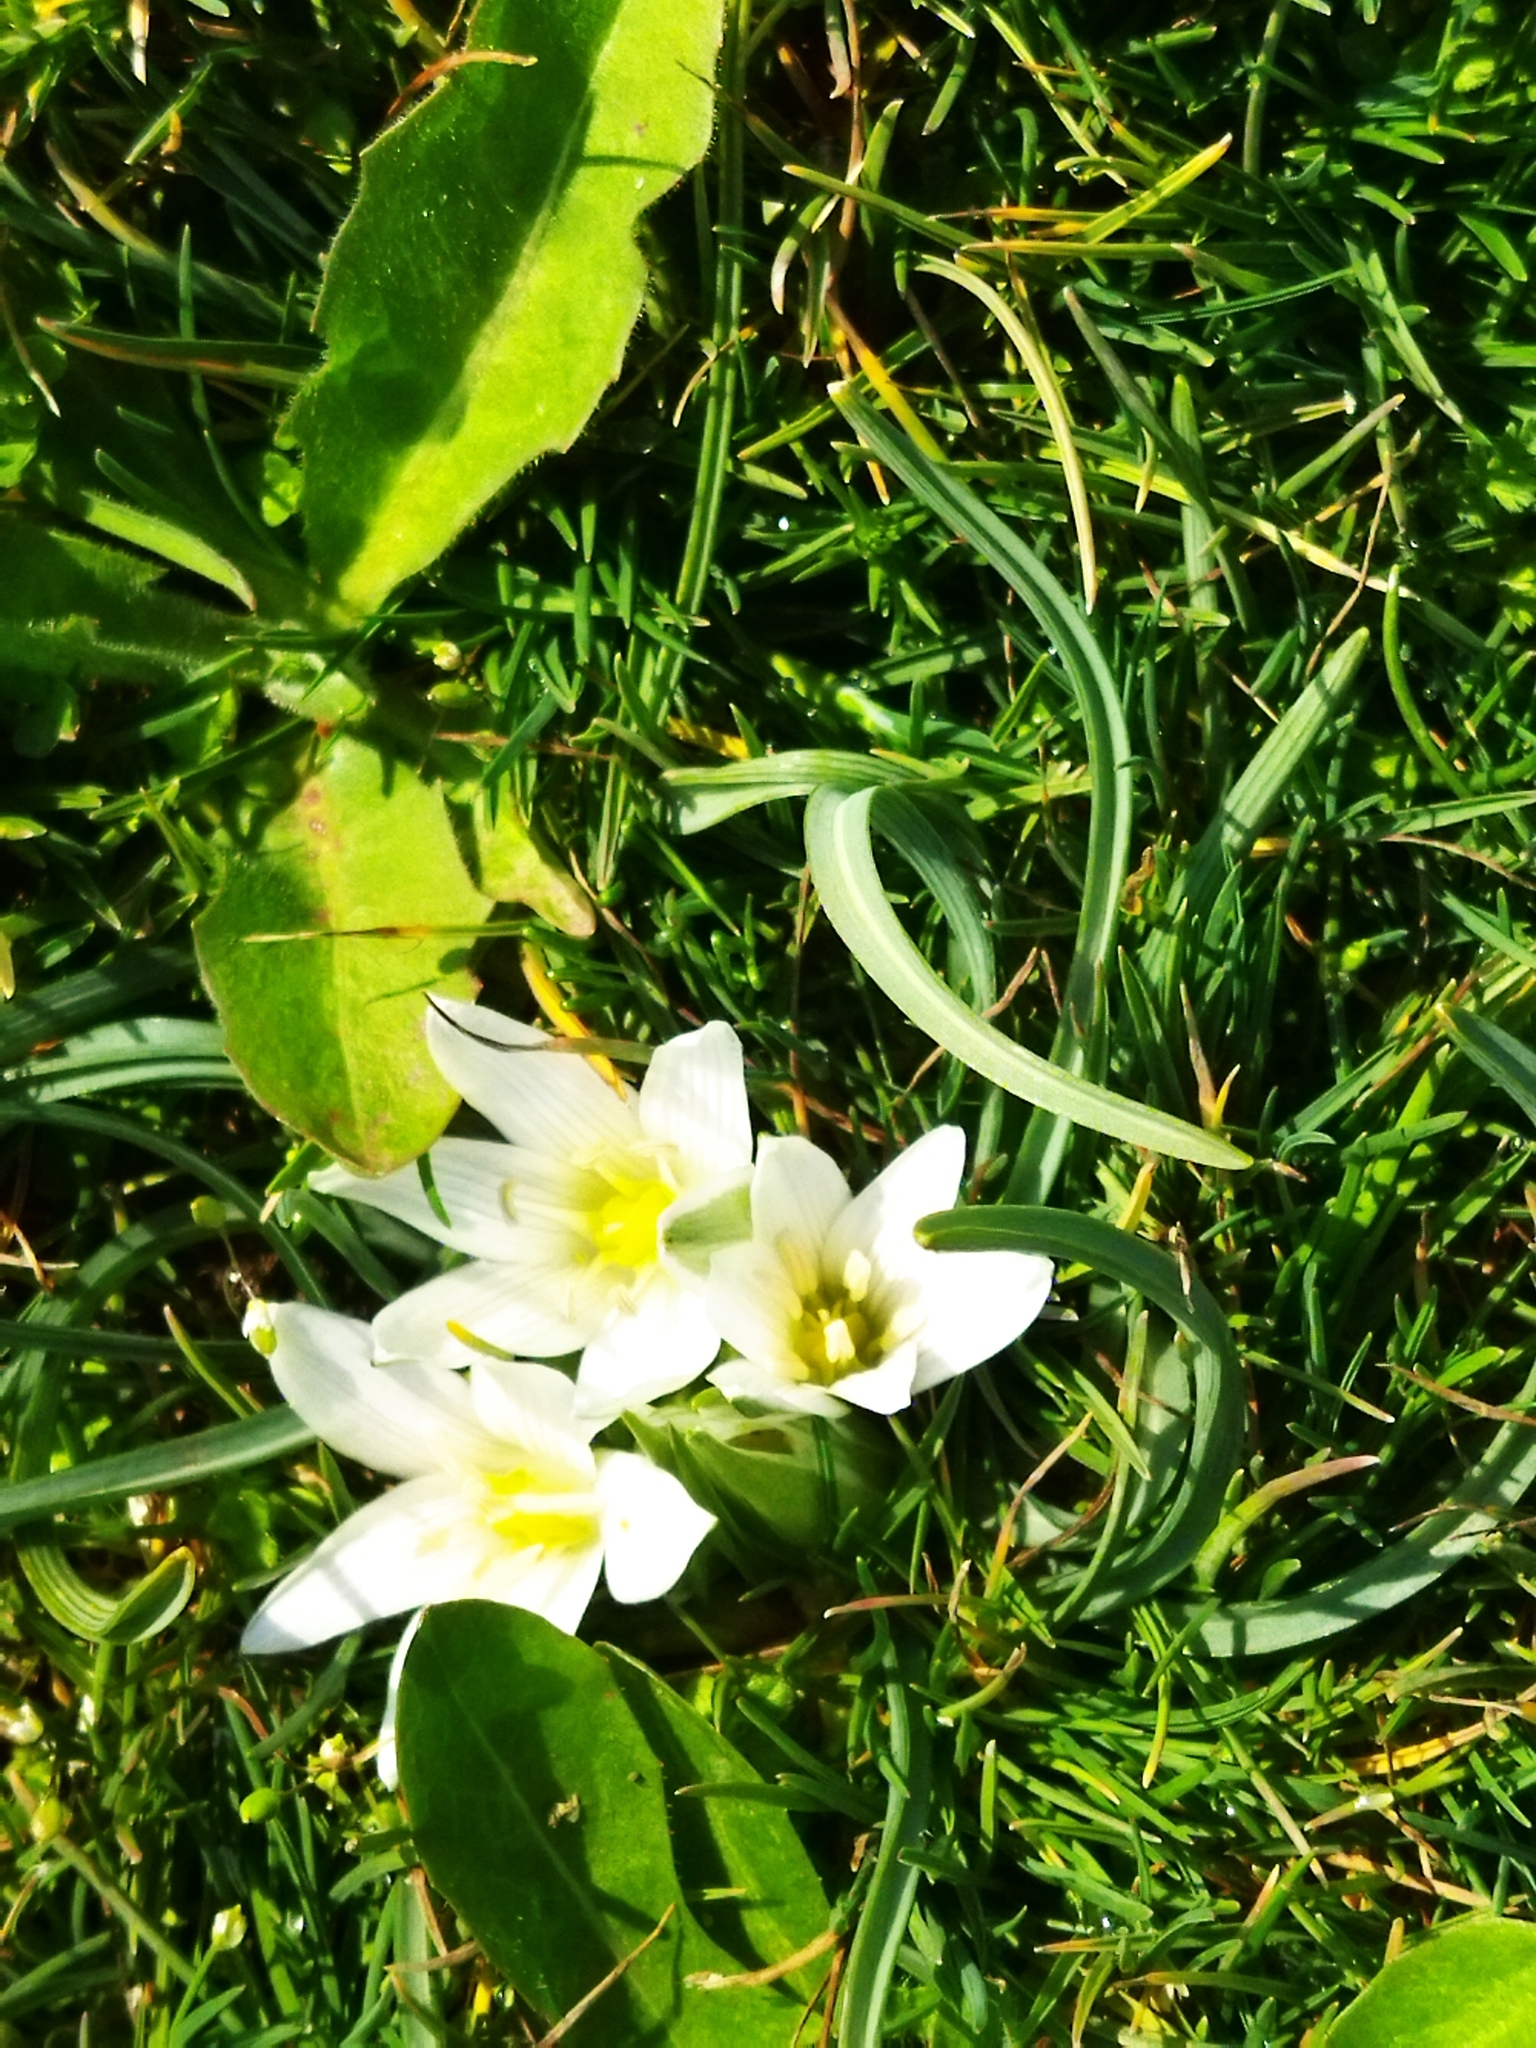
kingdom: Plantae
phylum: Tracheophyta
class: Liliopsida
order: Asparagales
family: Asparagaceae
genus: Ornithogalum
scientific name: Ornithogalum
